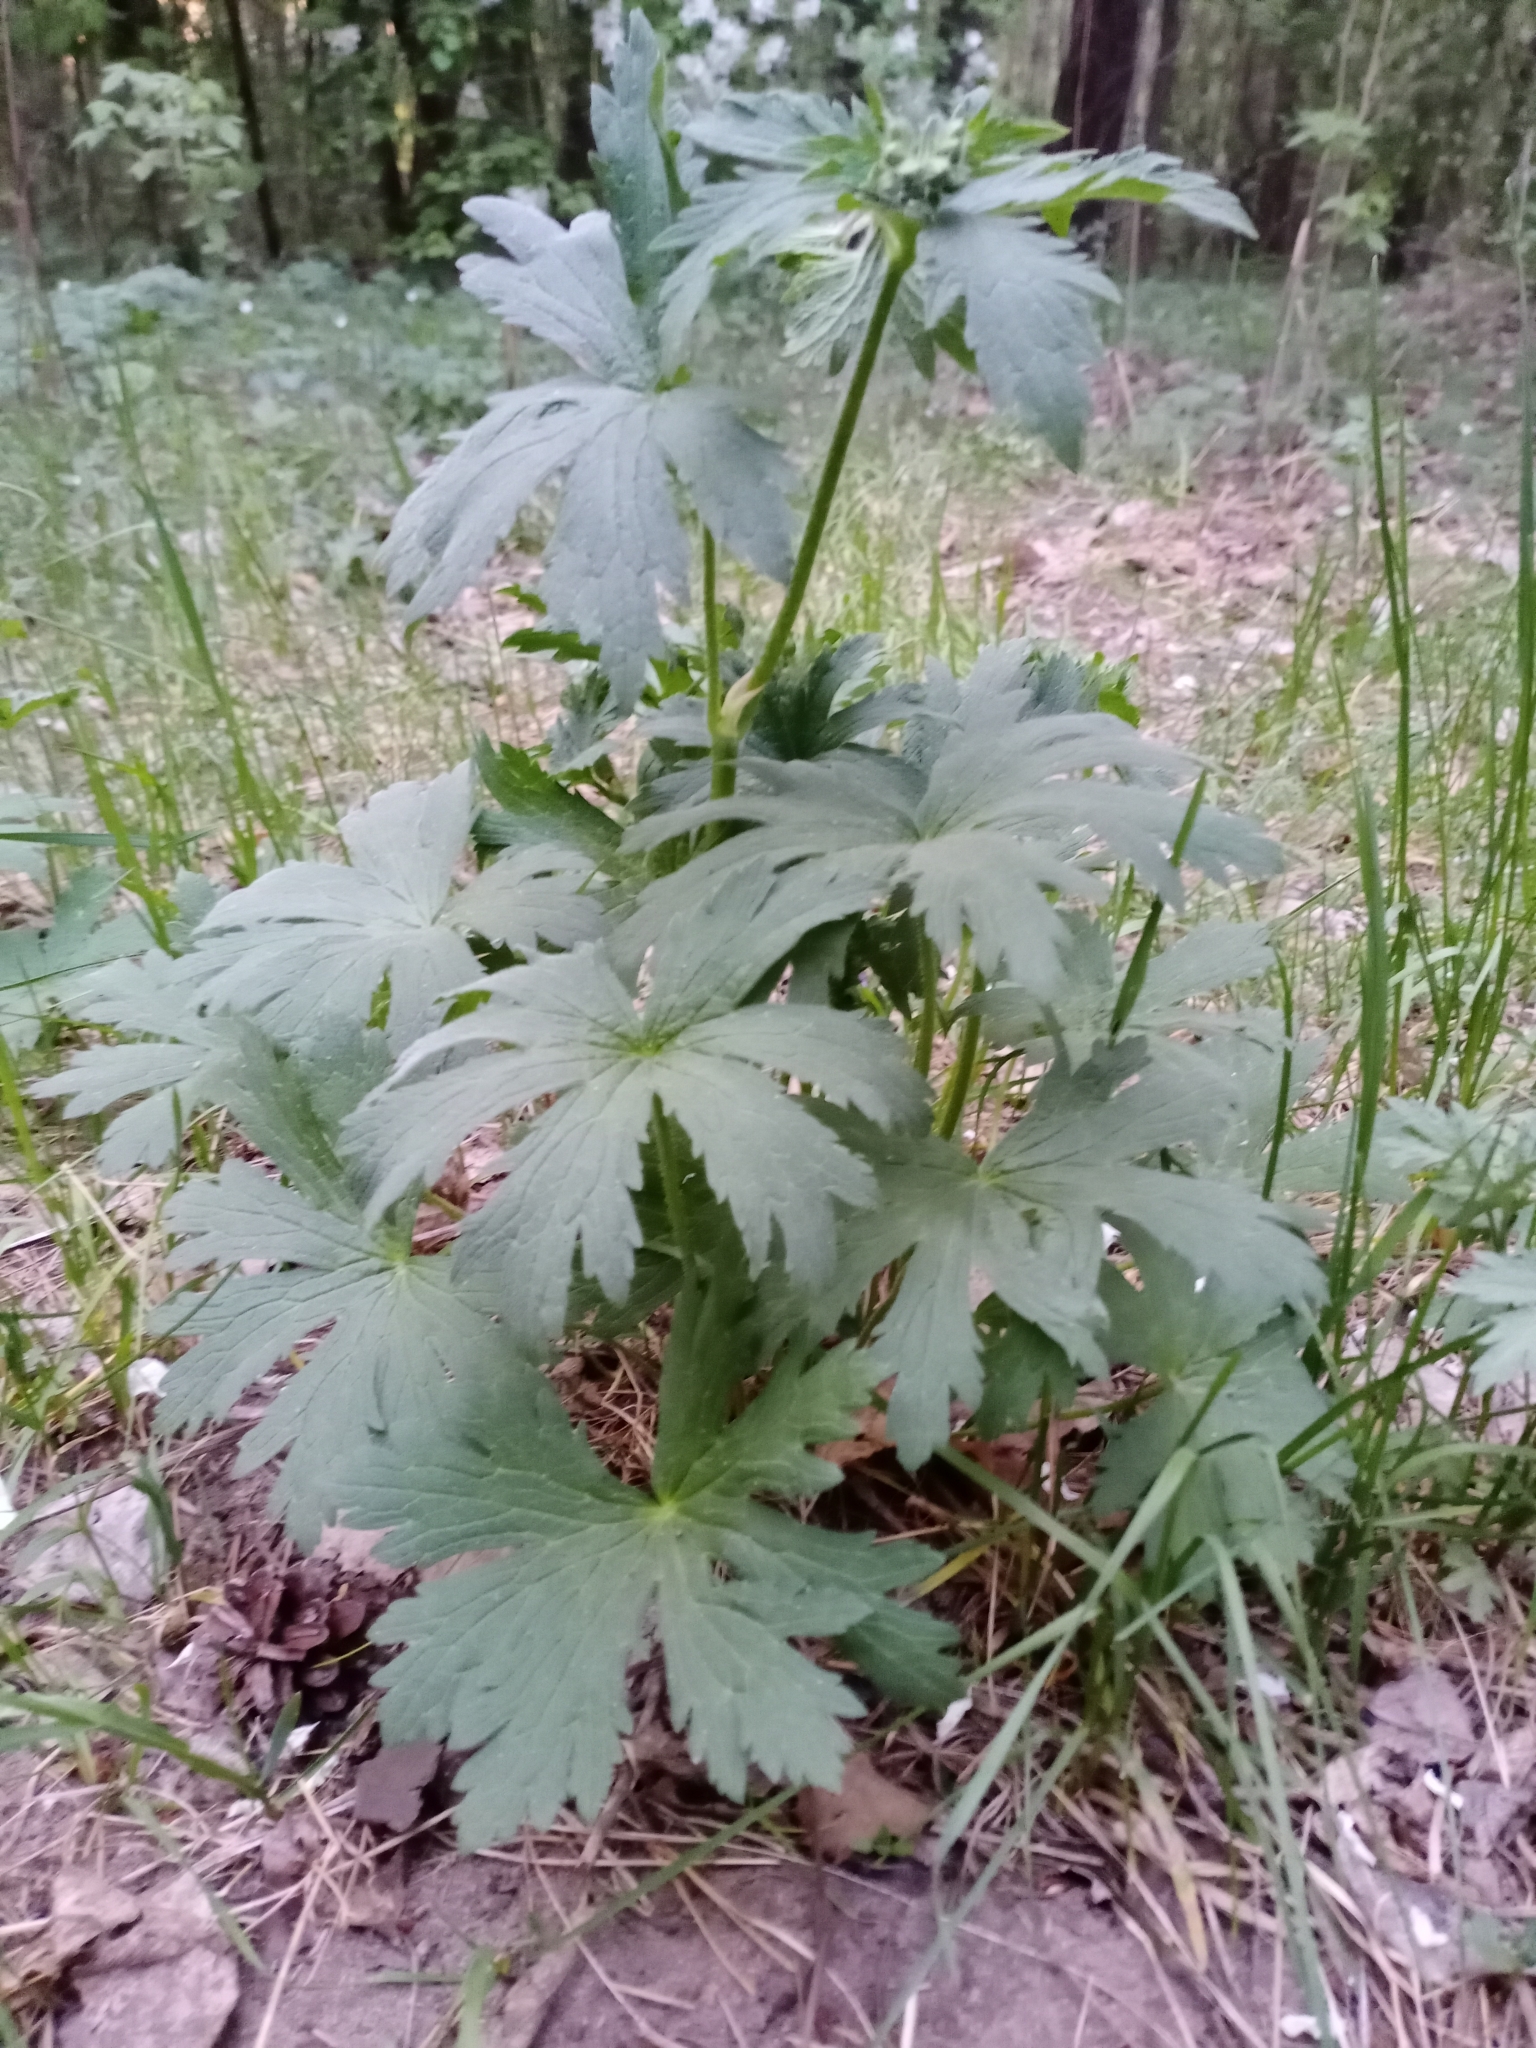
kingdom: Plantae
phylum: Tracheophyta
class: Magnoliopsida
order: Geraniales
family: Geraniaceae
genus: Geranium
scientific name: Geranium sylvaticum
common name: Wood crane's-bill
